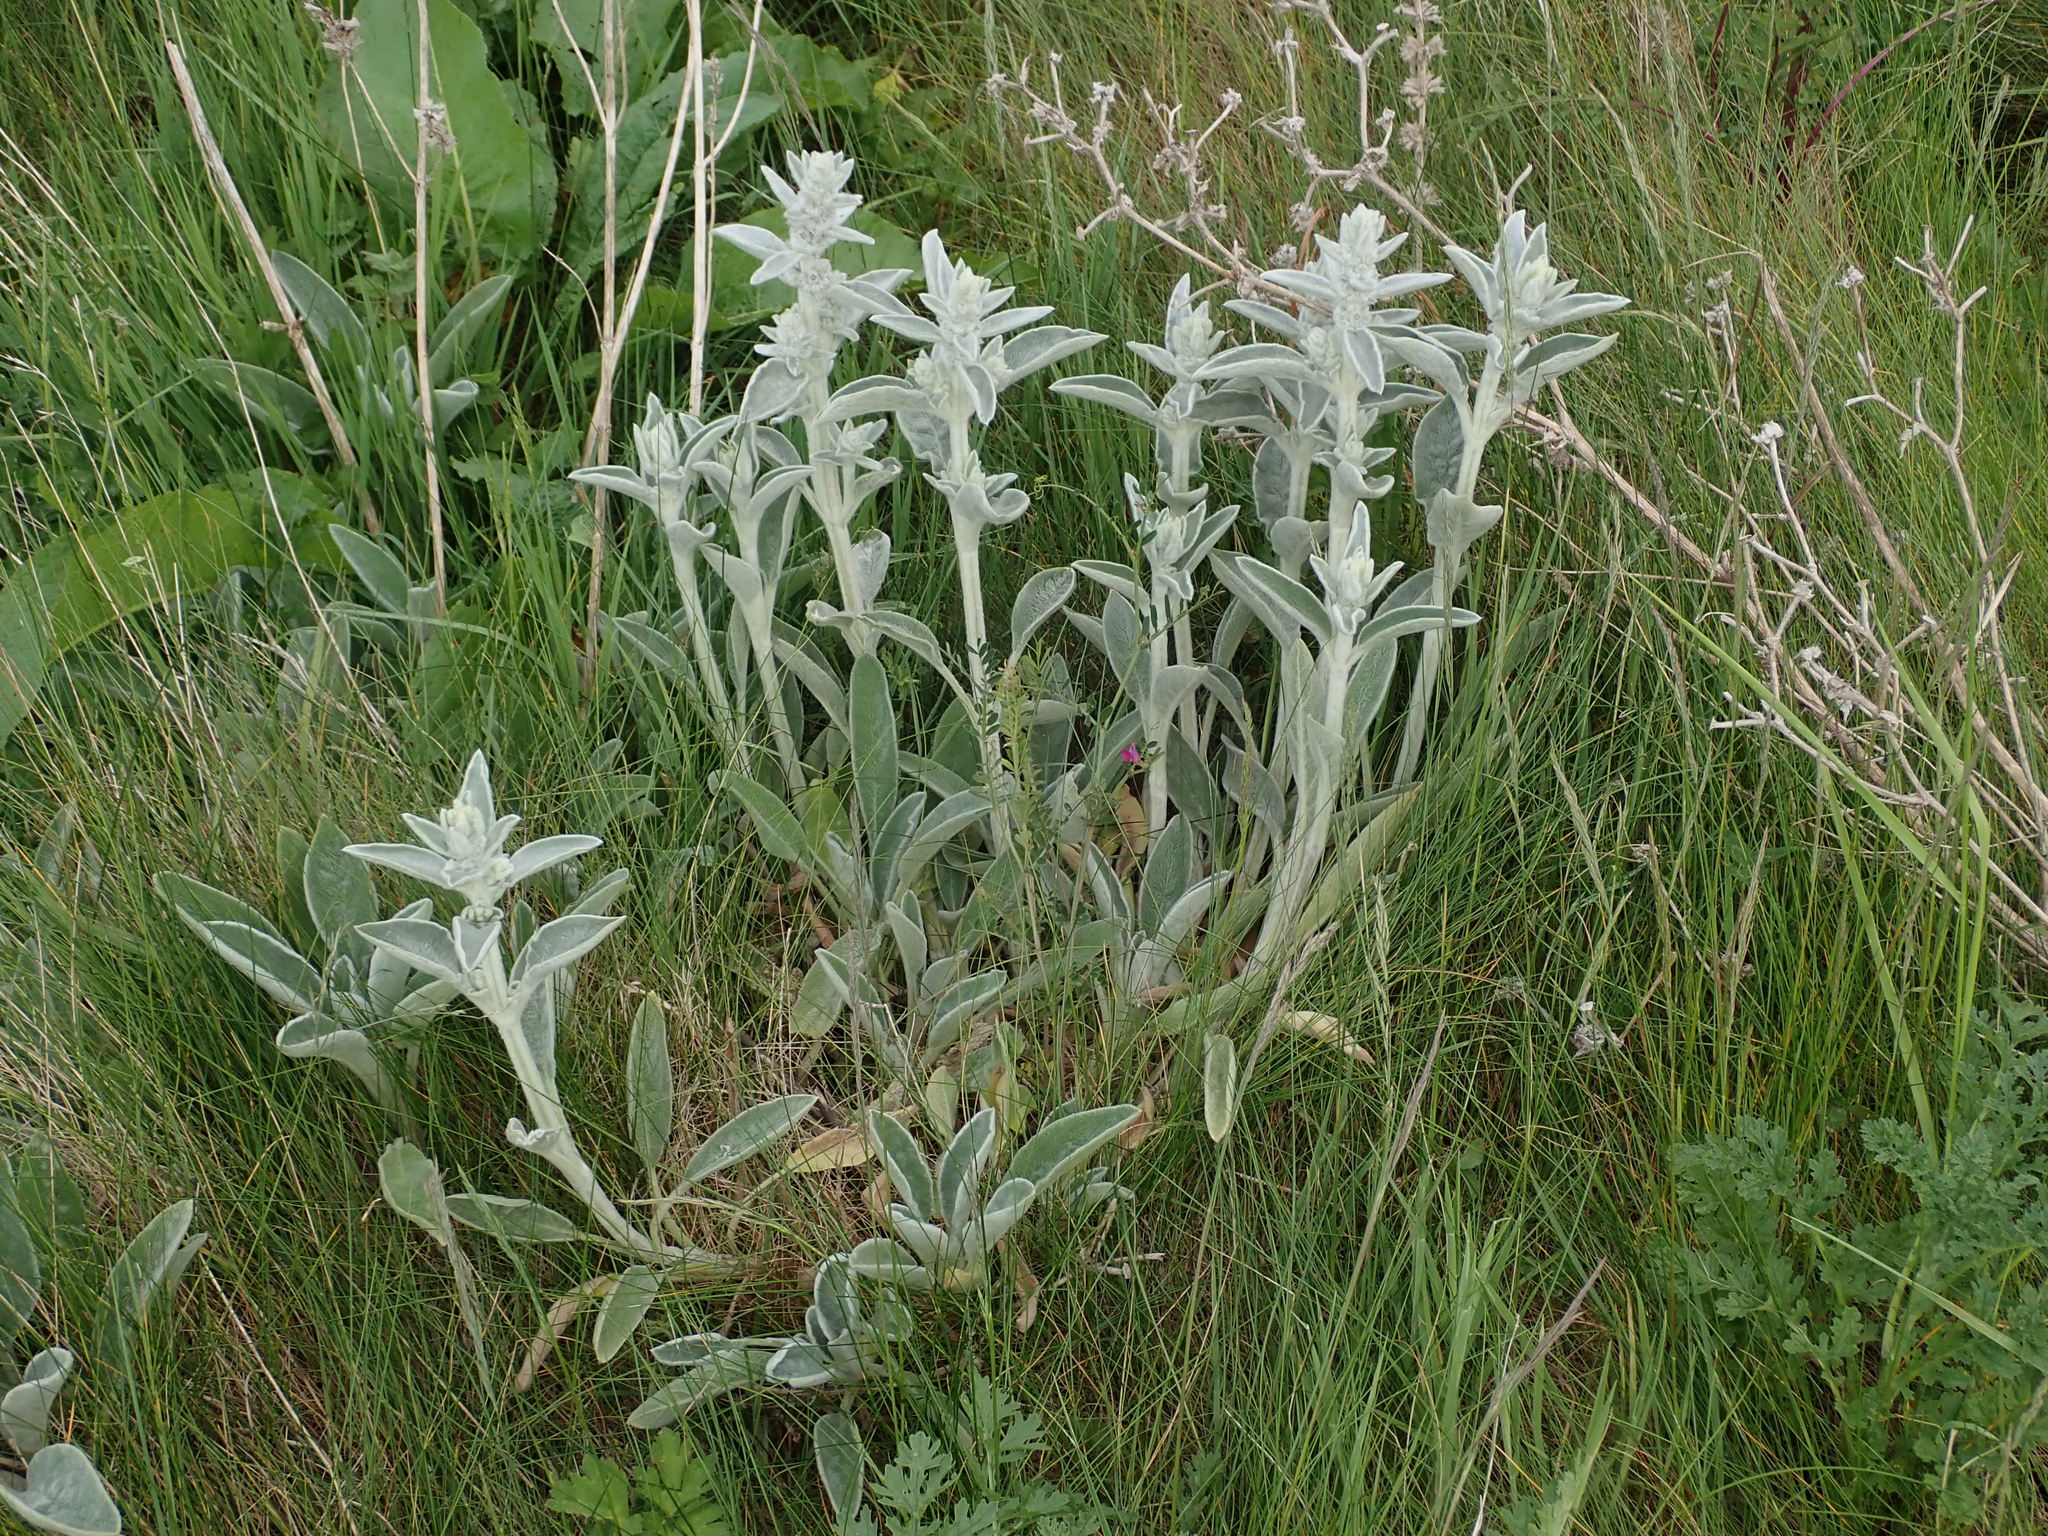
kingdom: Plantae
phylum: Tracheophyta
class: Magnoliopsida
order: Lamiales
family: Lamiaceae
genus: Stachys
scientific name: Stachys byzantina
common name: Lamb's-ear
